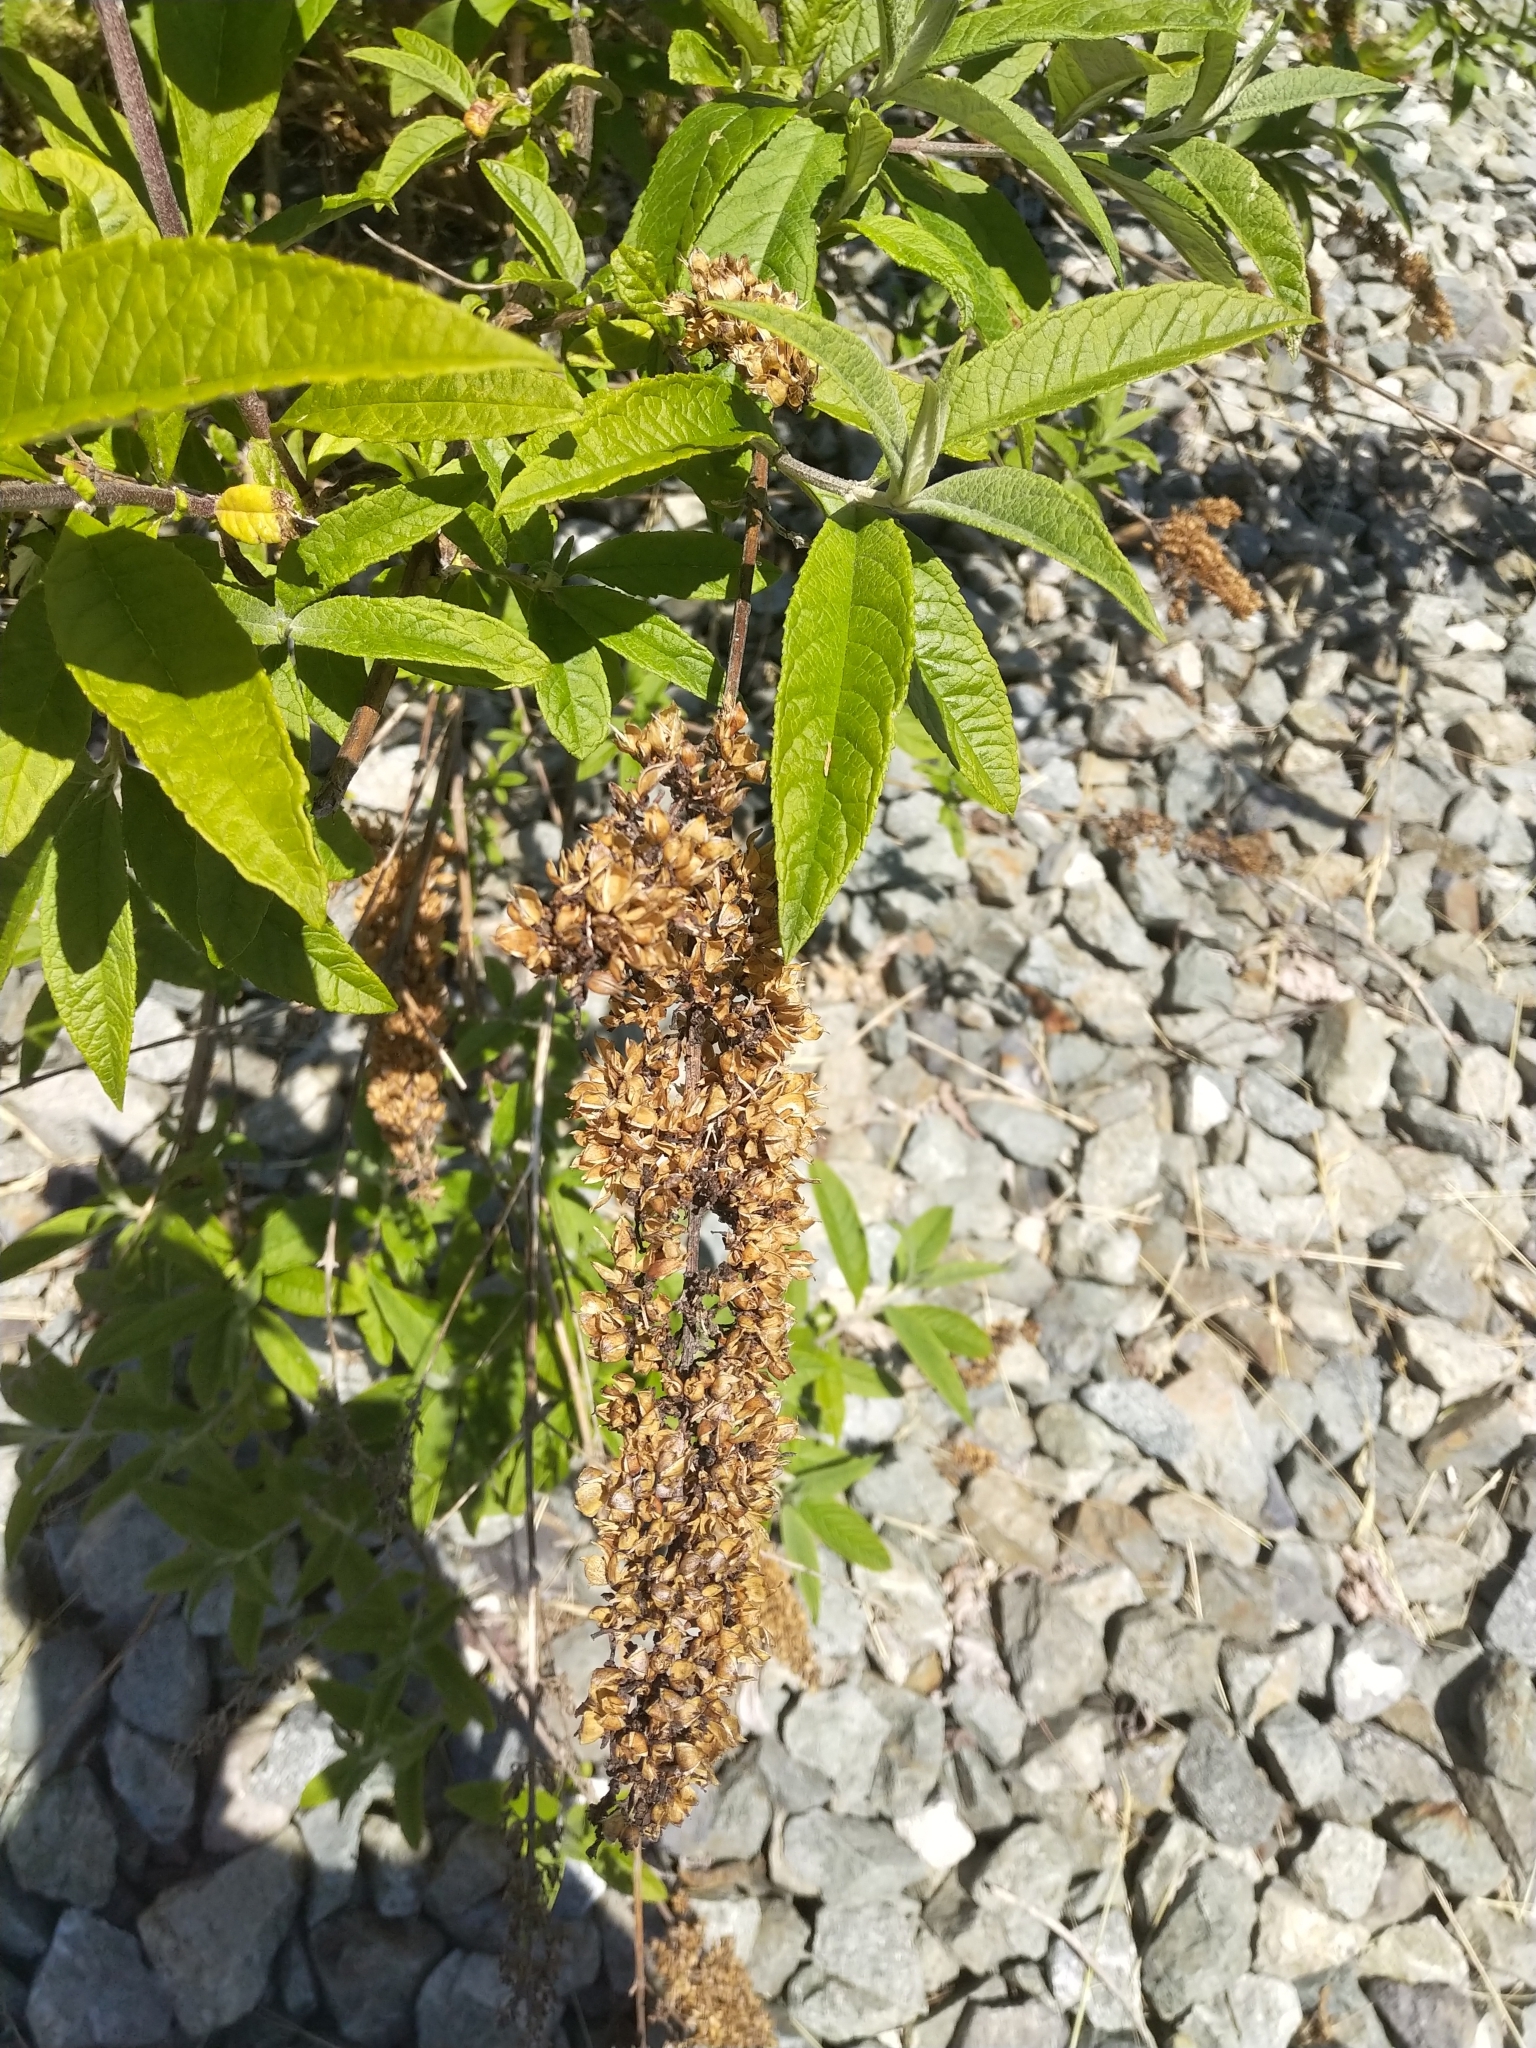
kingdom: Plantae
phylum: Tracheophyta
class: Magnoliopsida
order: Lamiales
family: Scrophulariaceae
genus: Buddleja
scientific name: Buddleja davidii
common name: Butterfly-bush
